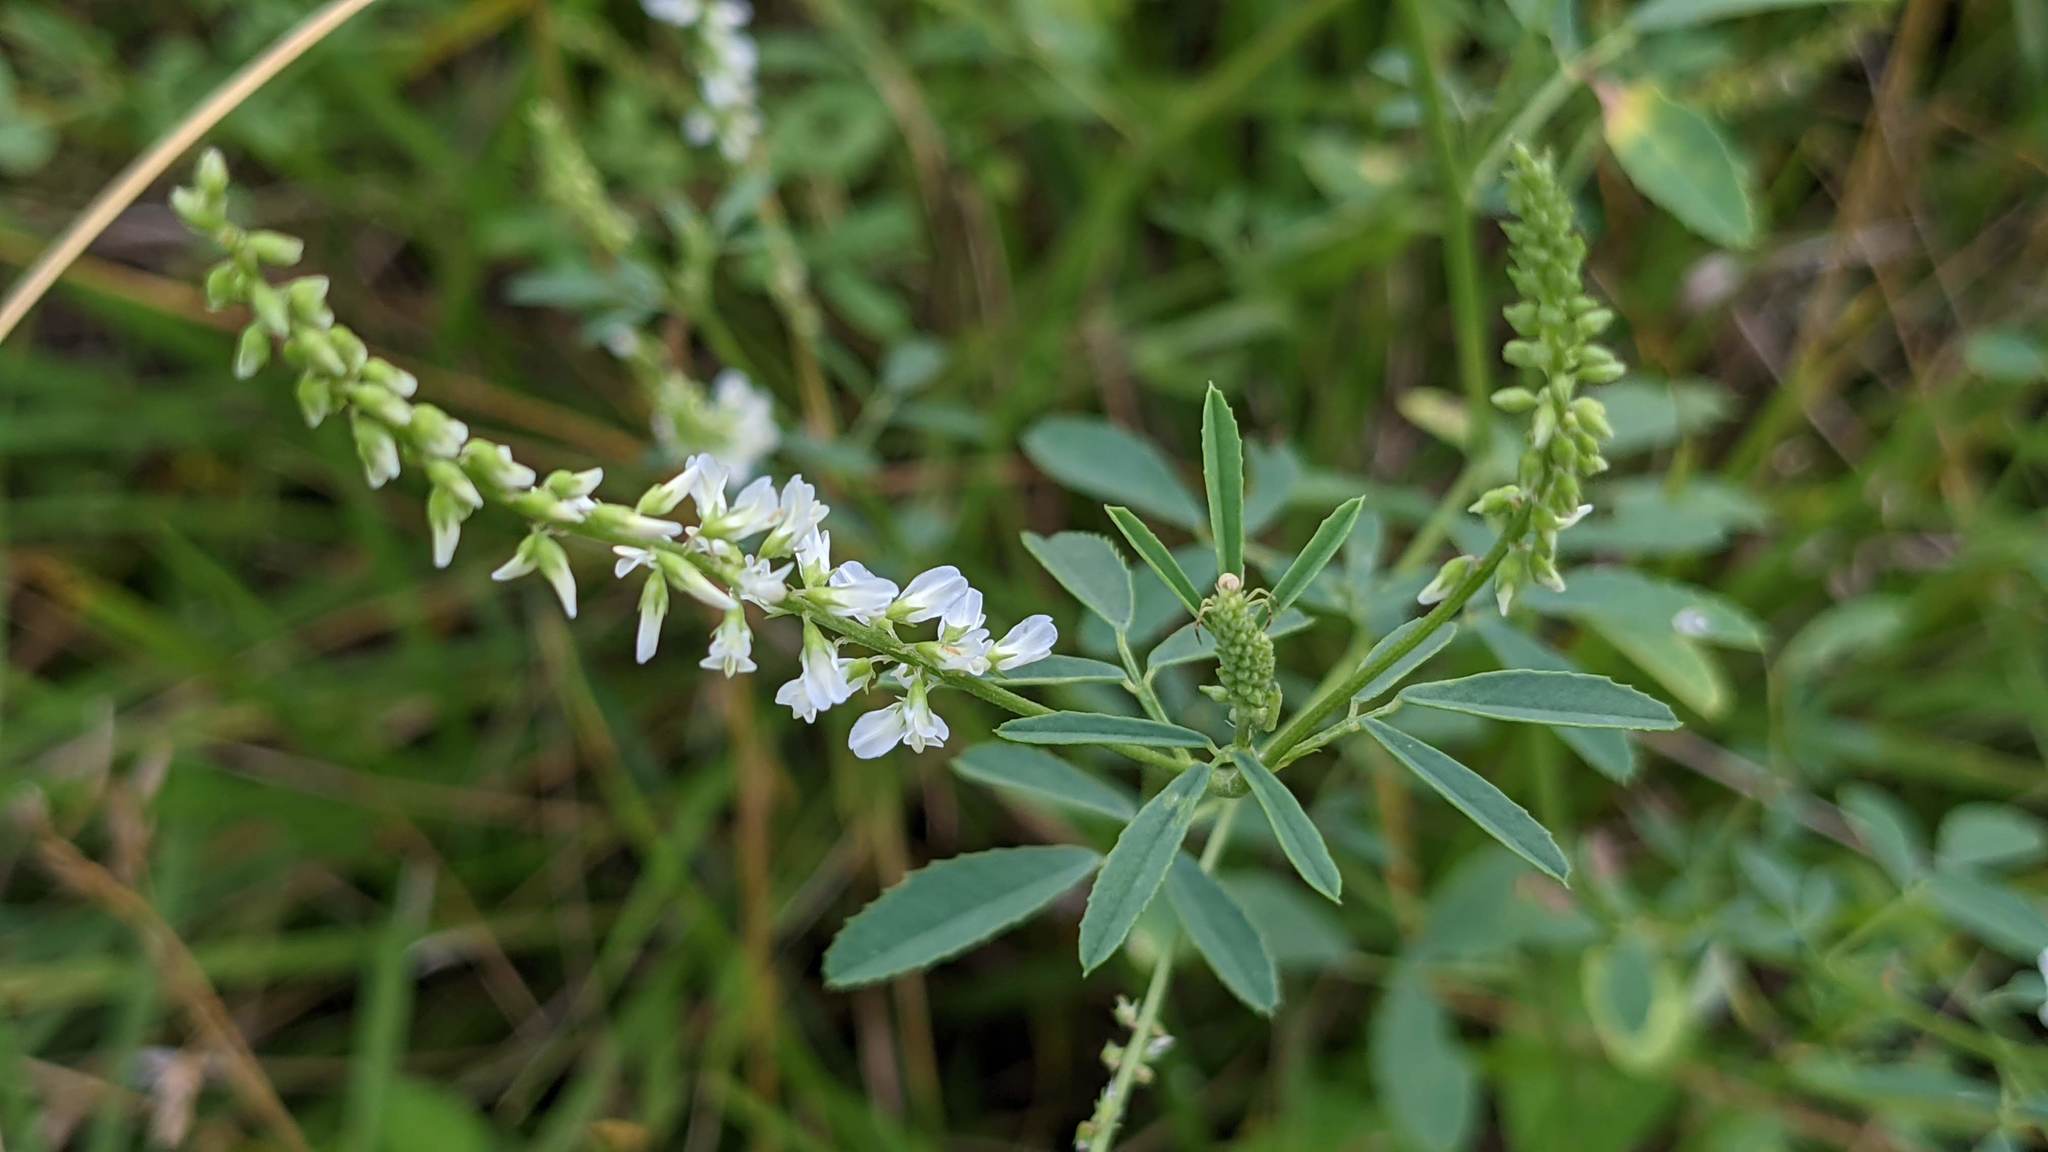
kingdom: Plantae
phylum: Tracheophyta
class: Magnoliopsida
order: Fabales
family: Fabaceae
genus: Melilotus
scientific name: Melilotus albus
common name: White melilot
